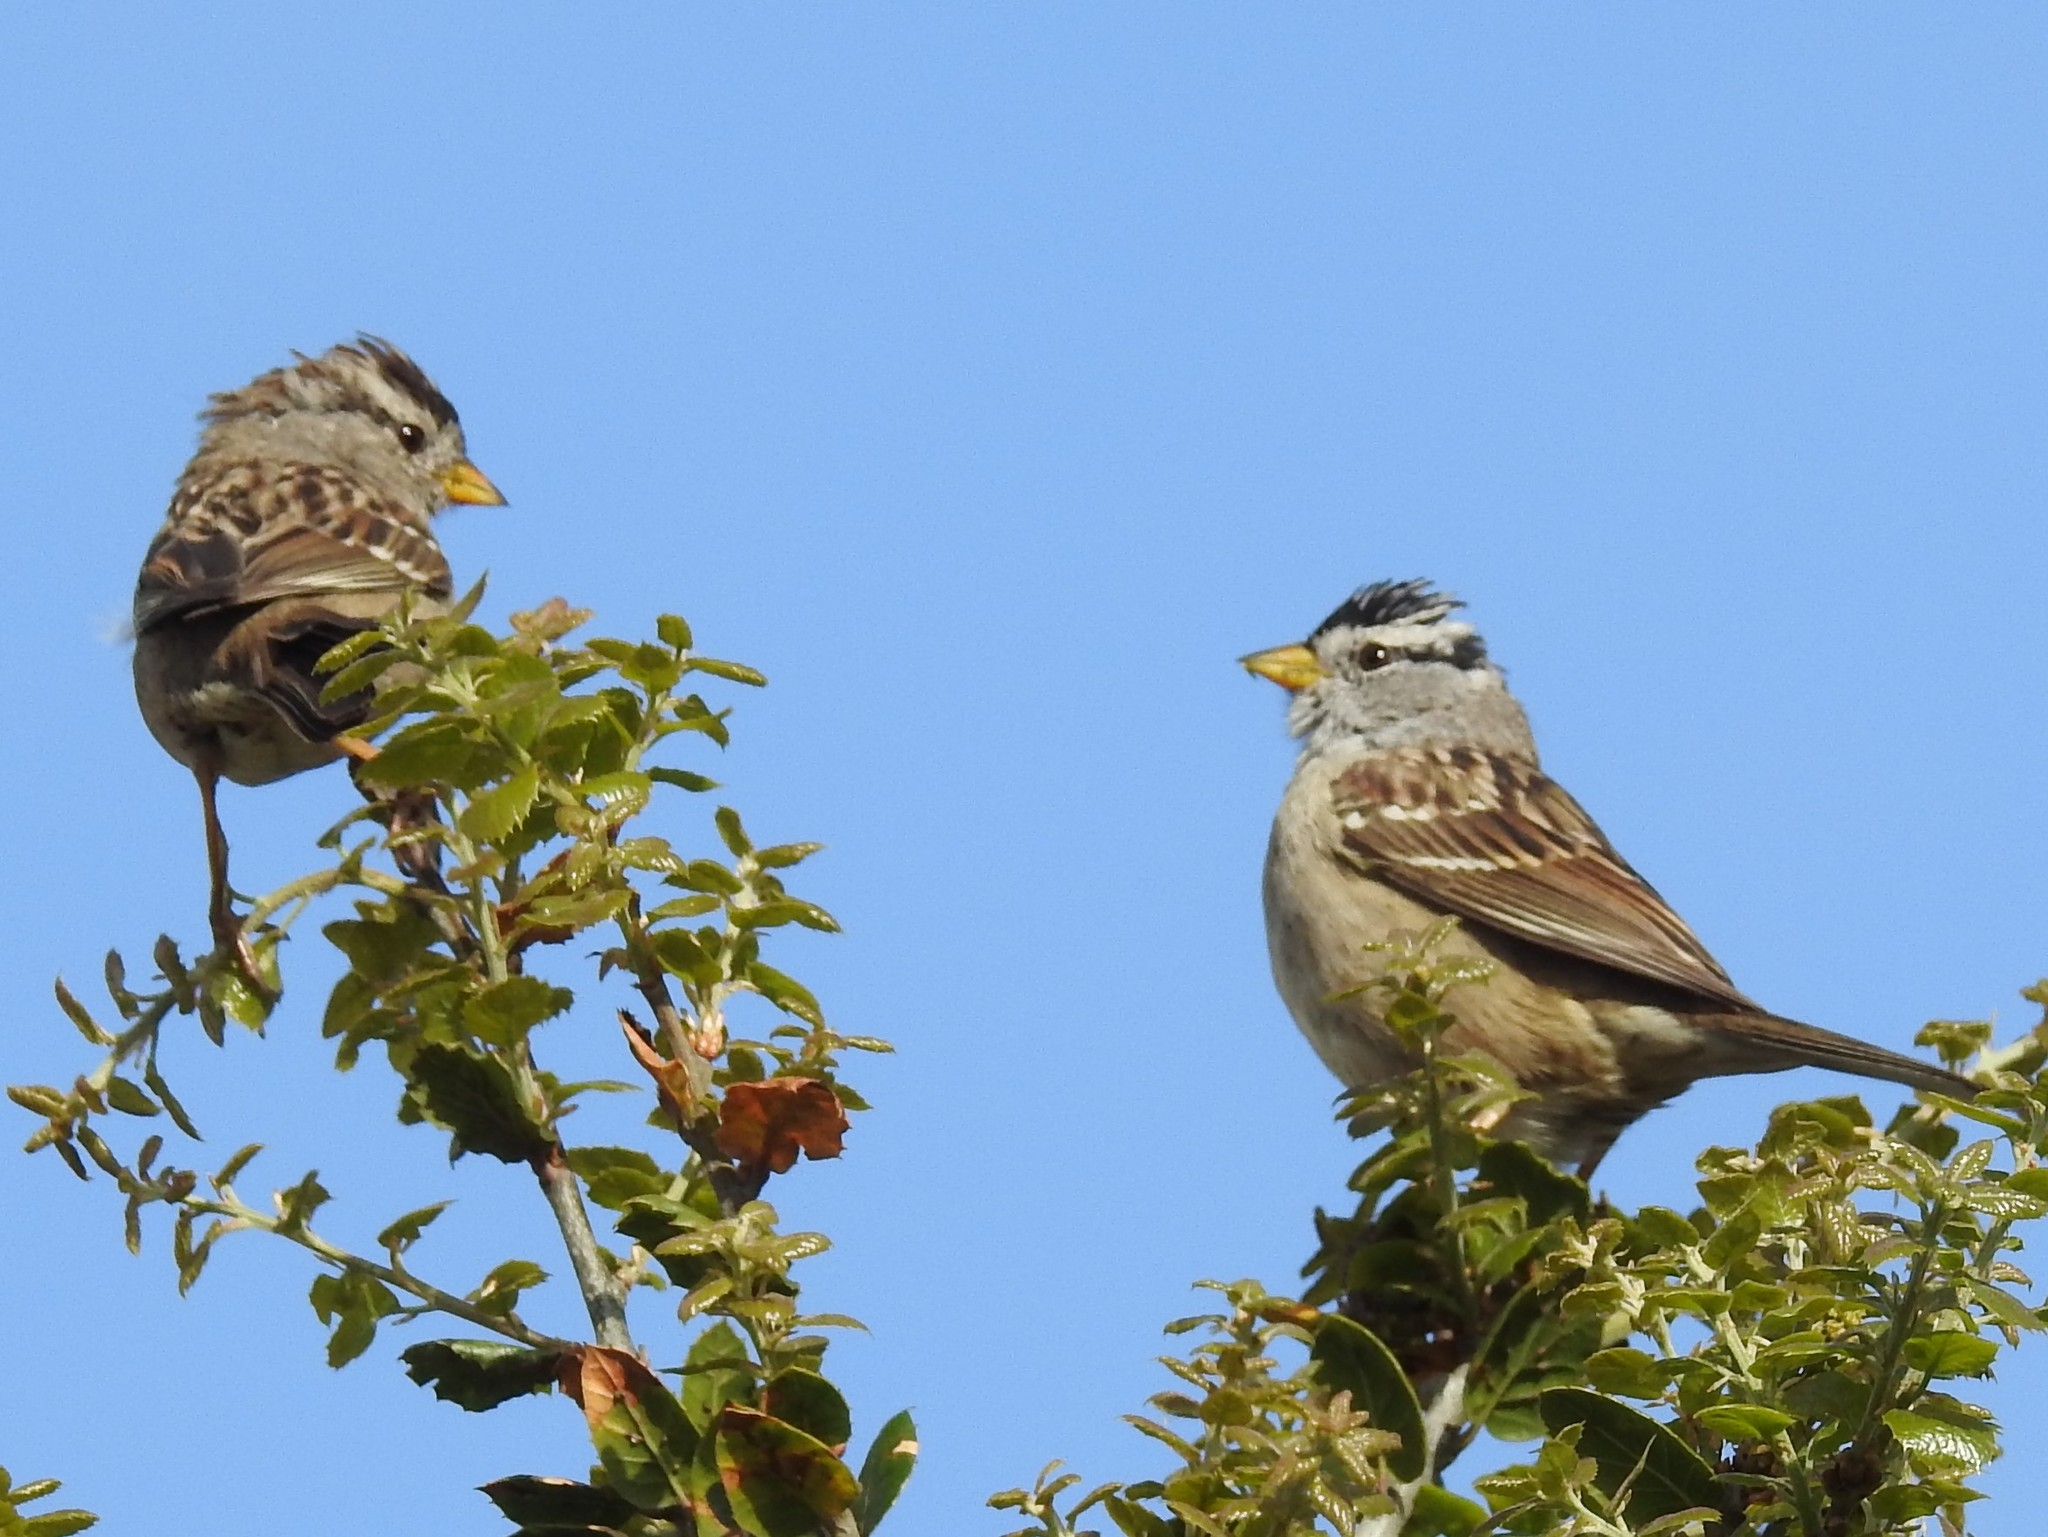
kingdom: Animalia
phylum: Chordata
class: Aves
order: Passeriformes
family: Passerellidae
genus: Zonotrichia
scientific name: Zonotrichia leucophrys
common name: White-crowned sparrow
